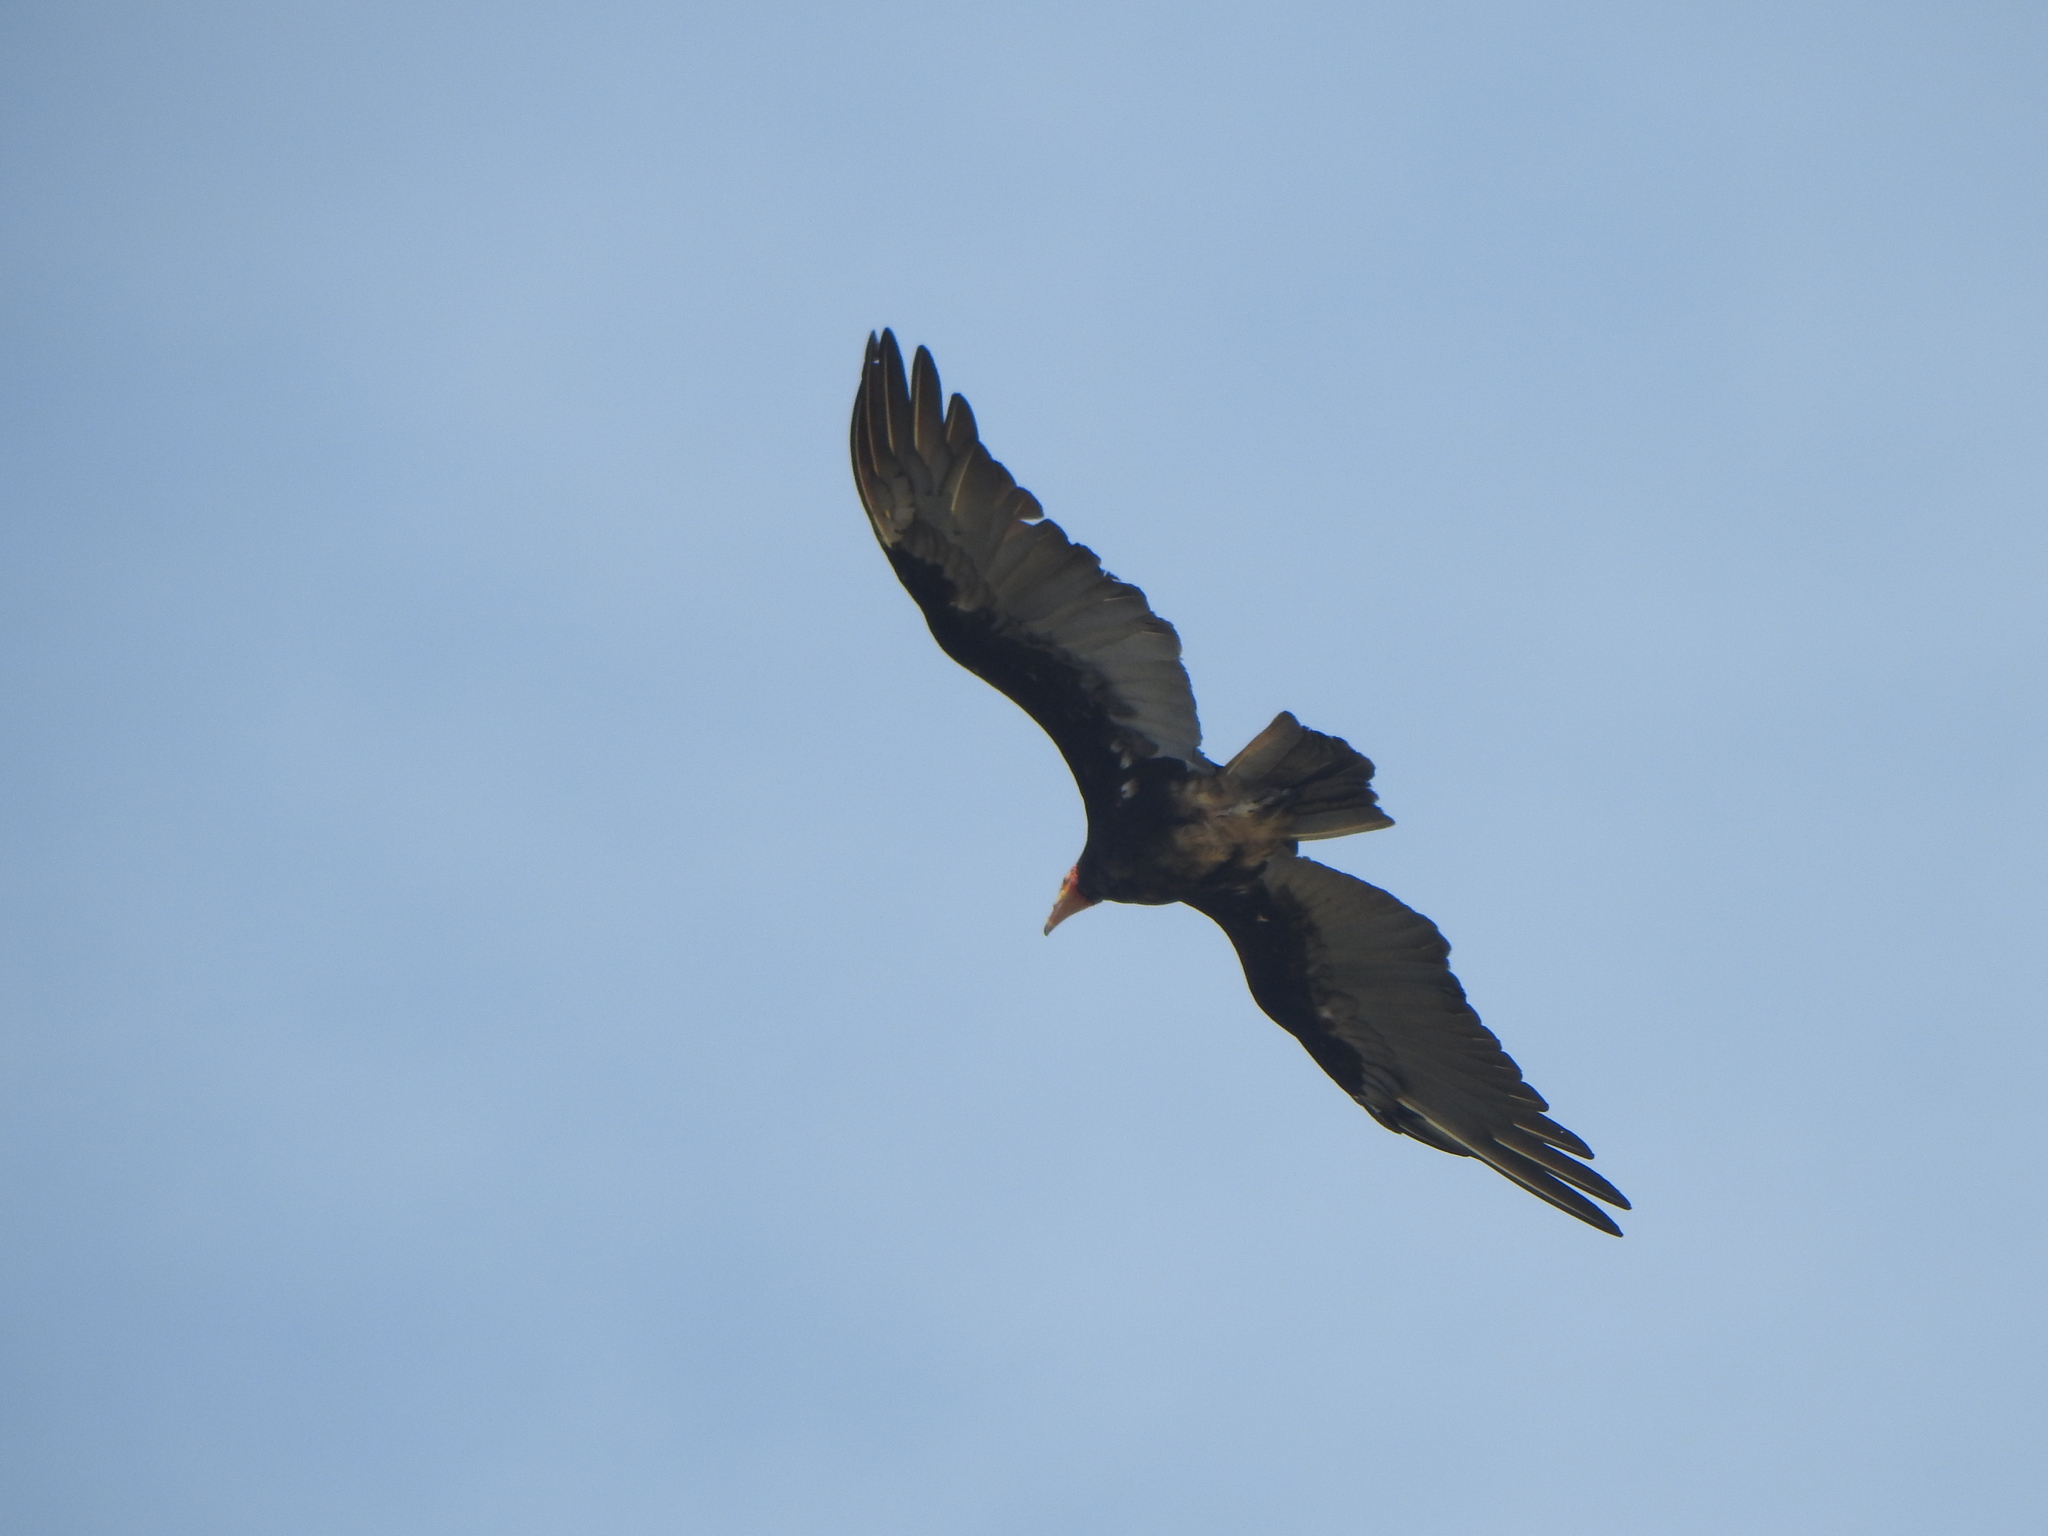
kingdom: Animalia
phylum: Chordata
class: Aves
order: Accipitriformes
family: Cathartidae
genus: Cathartes
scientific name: Cathartes burrovianus
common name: Lesser yellow-headed vulture
